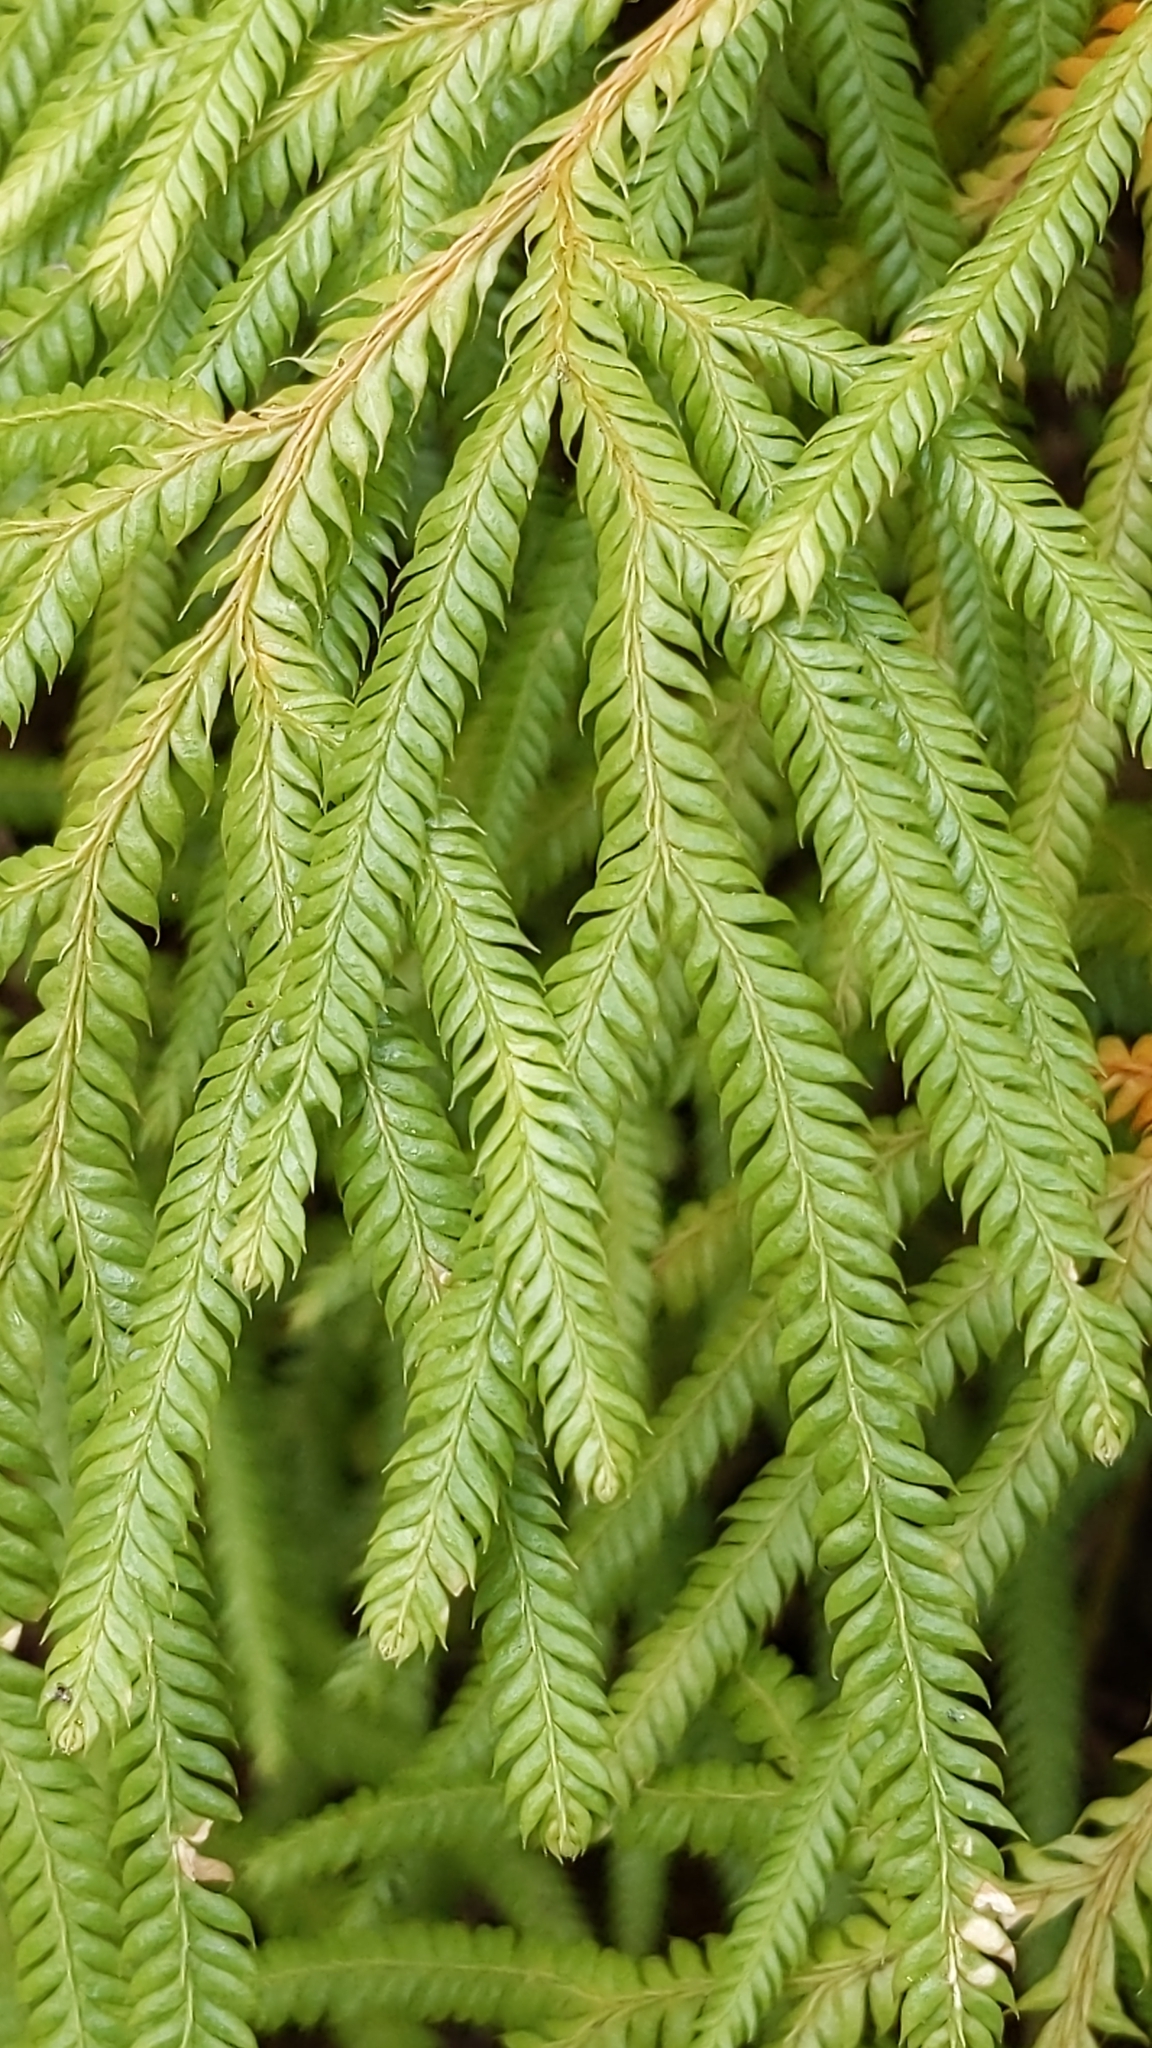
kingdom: Plantae
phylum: Tracheophyta
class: Lycopodiopsida
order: Lycopodiales
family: Lycopodiaceae
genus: Lycopodium
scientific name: Lycopodium volubile
